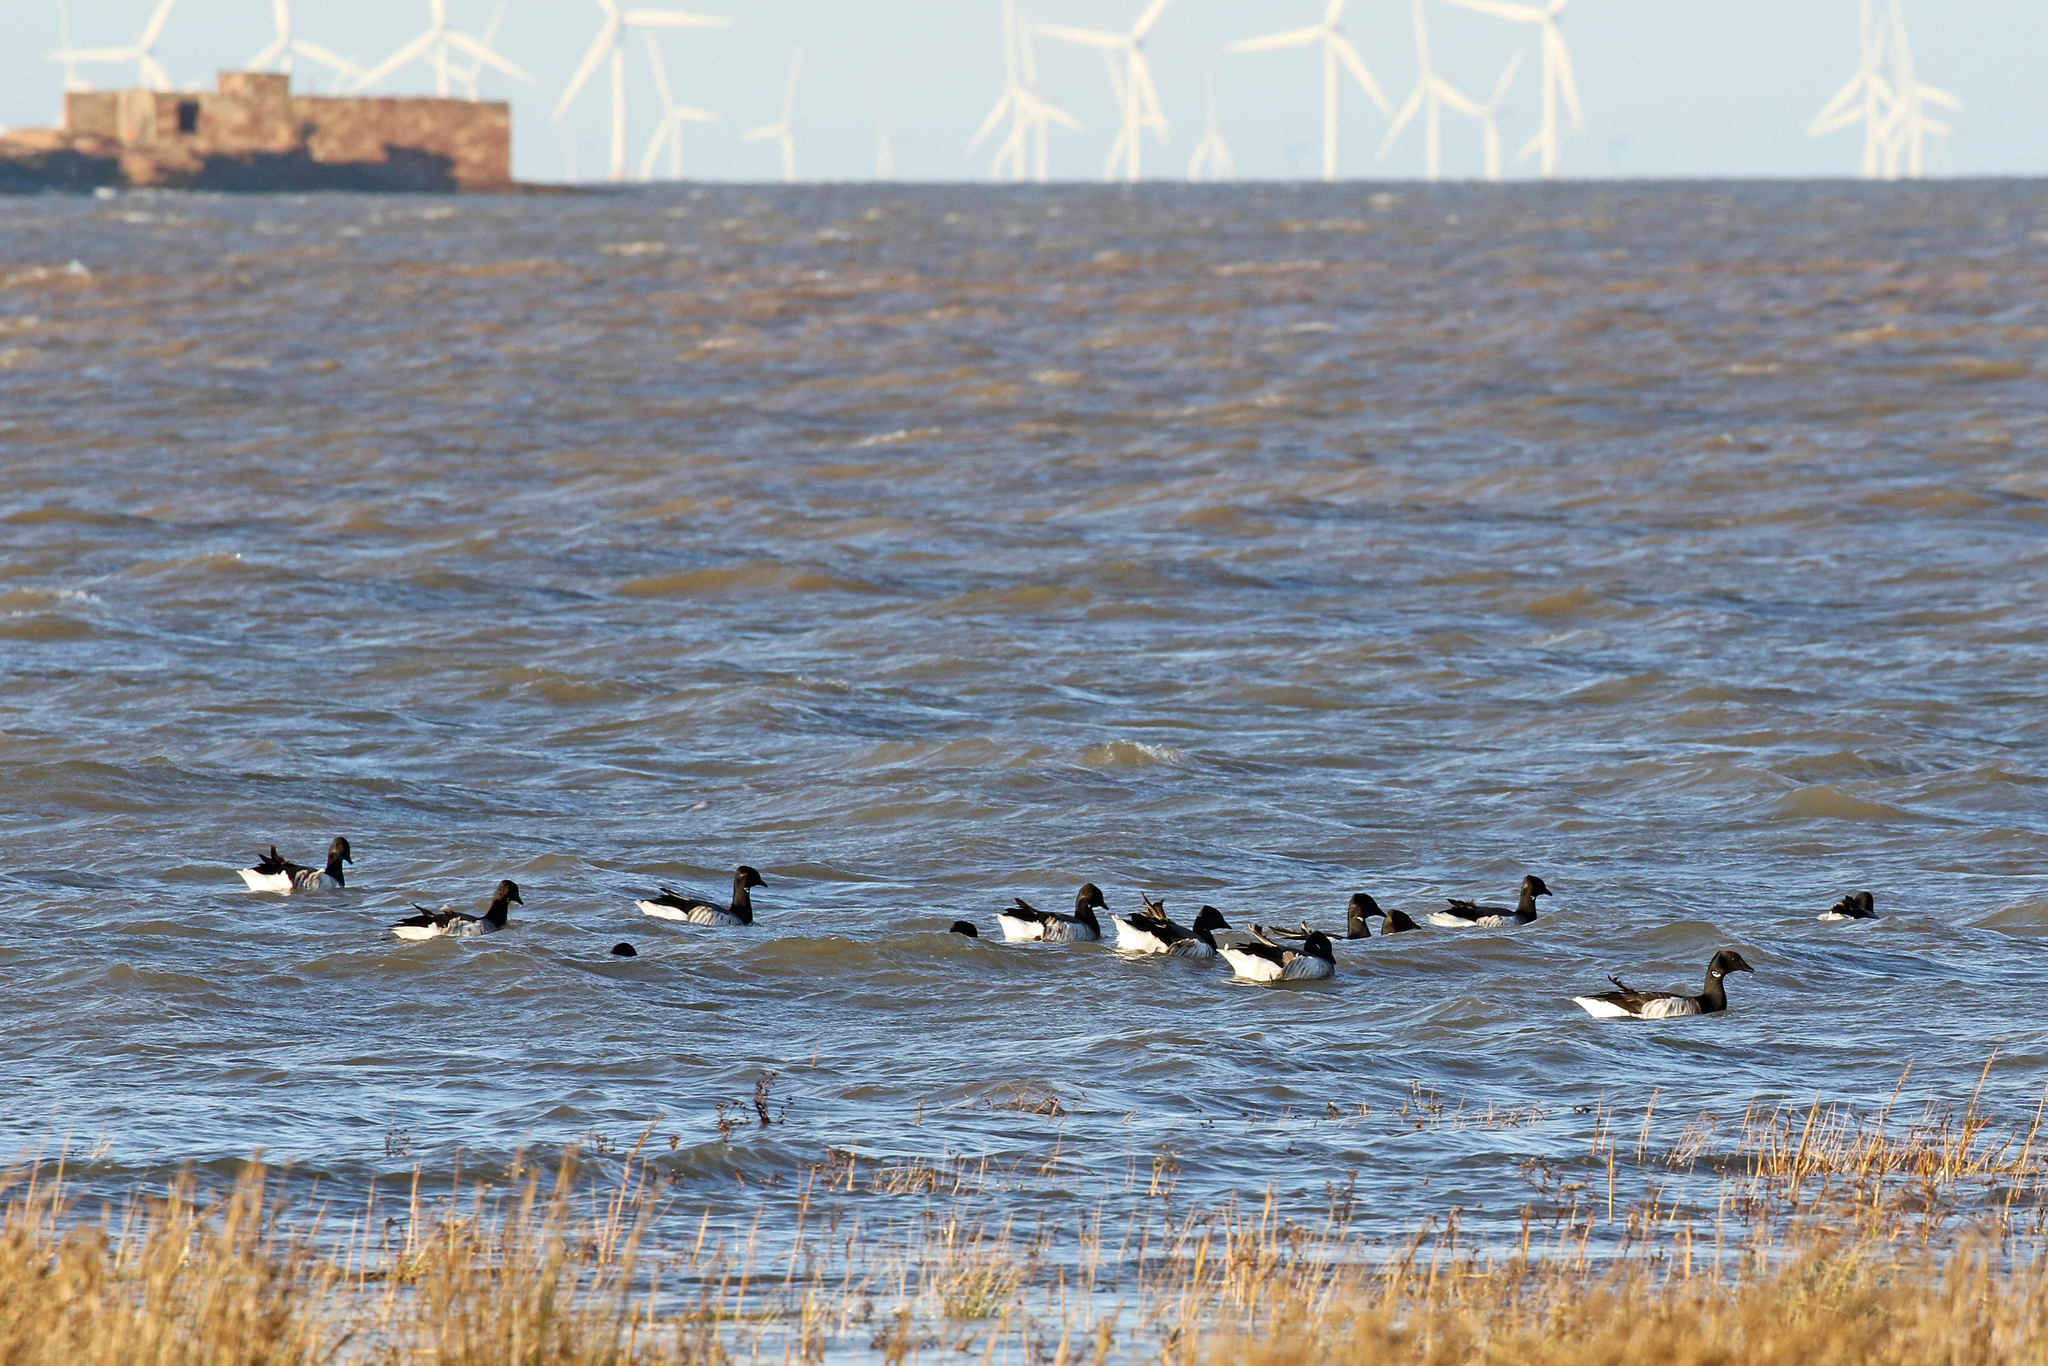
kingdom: Animalia
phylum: Chordata
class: Aves
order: Anseriformes
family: Anatidae
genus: Branta
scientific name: Branta bernicla
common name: Brant goose
